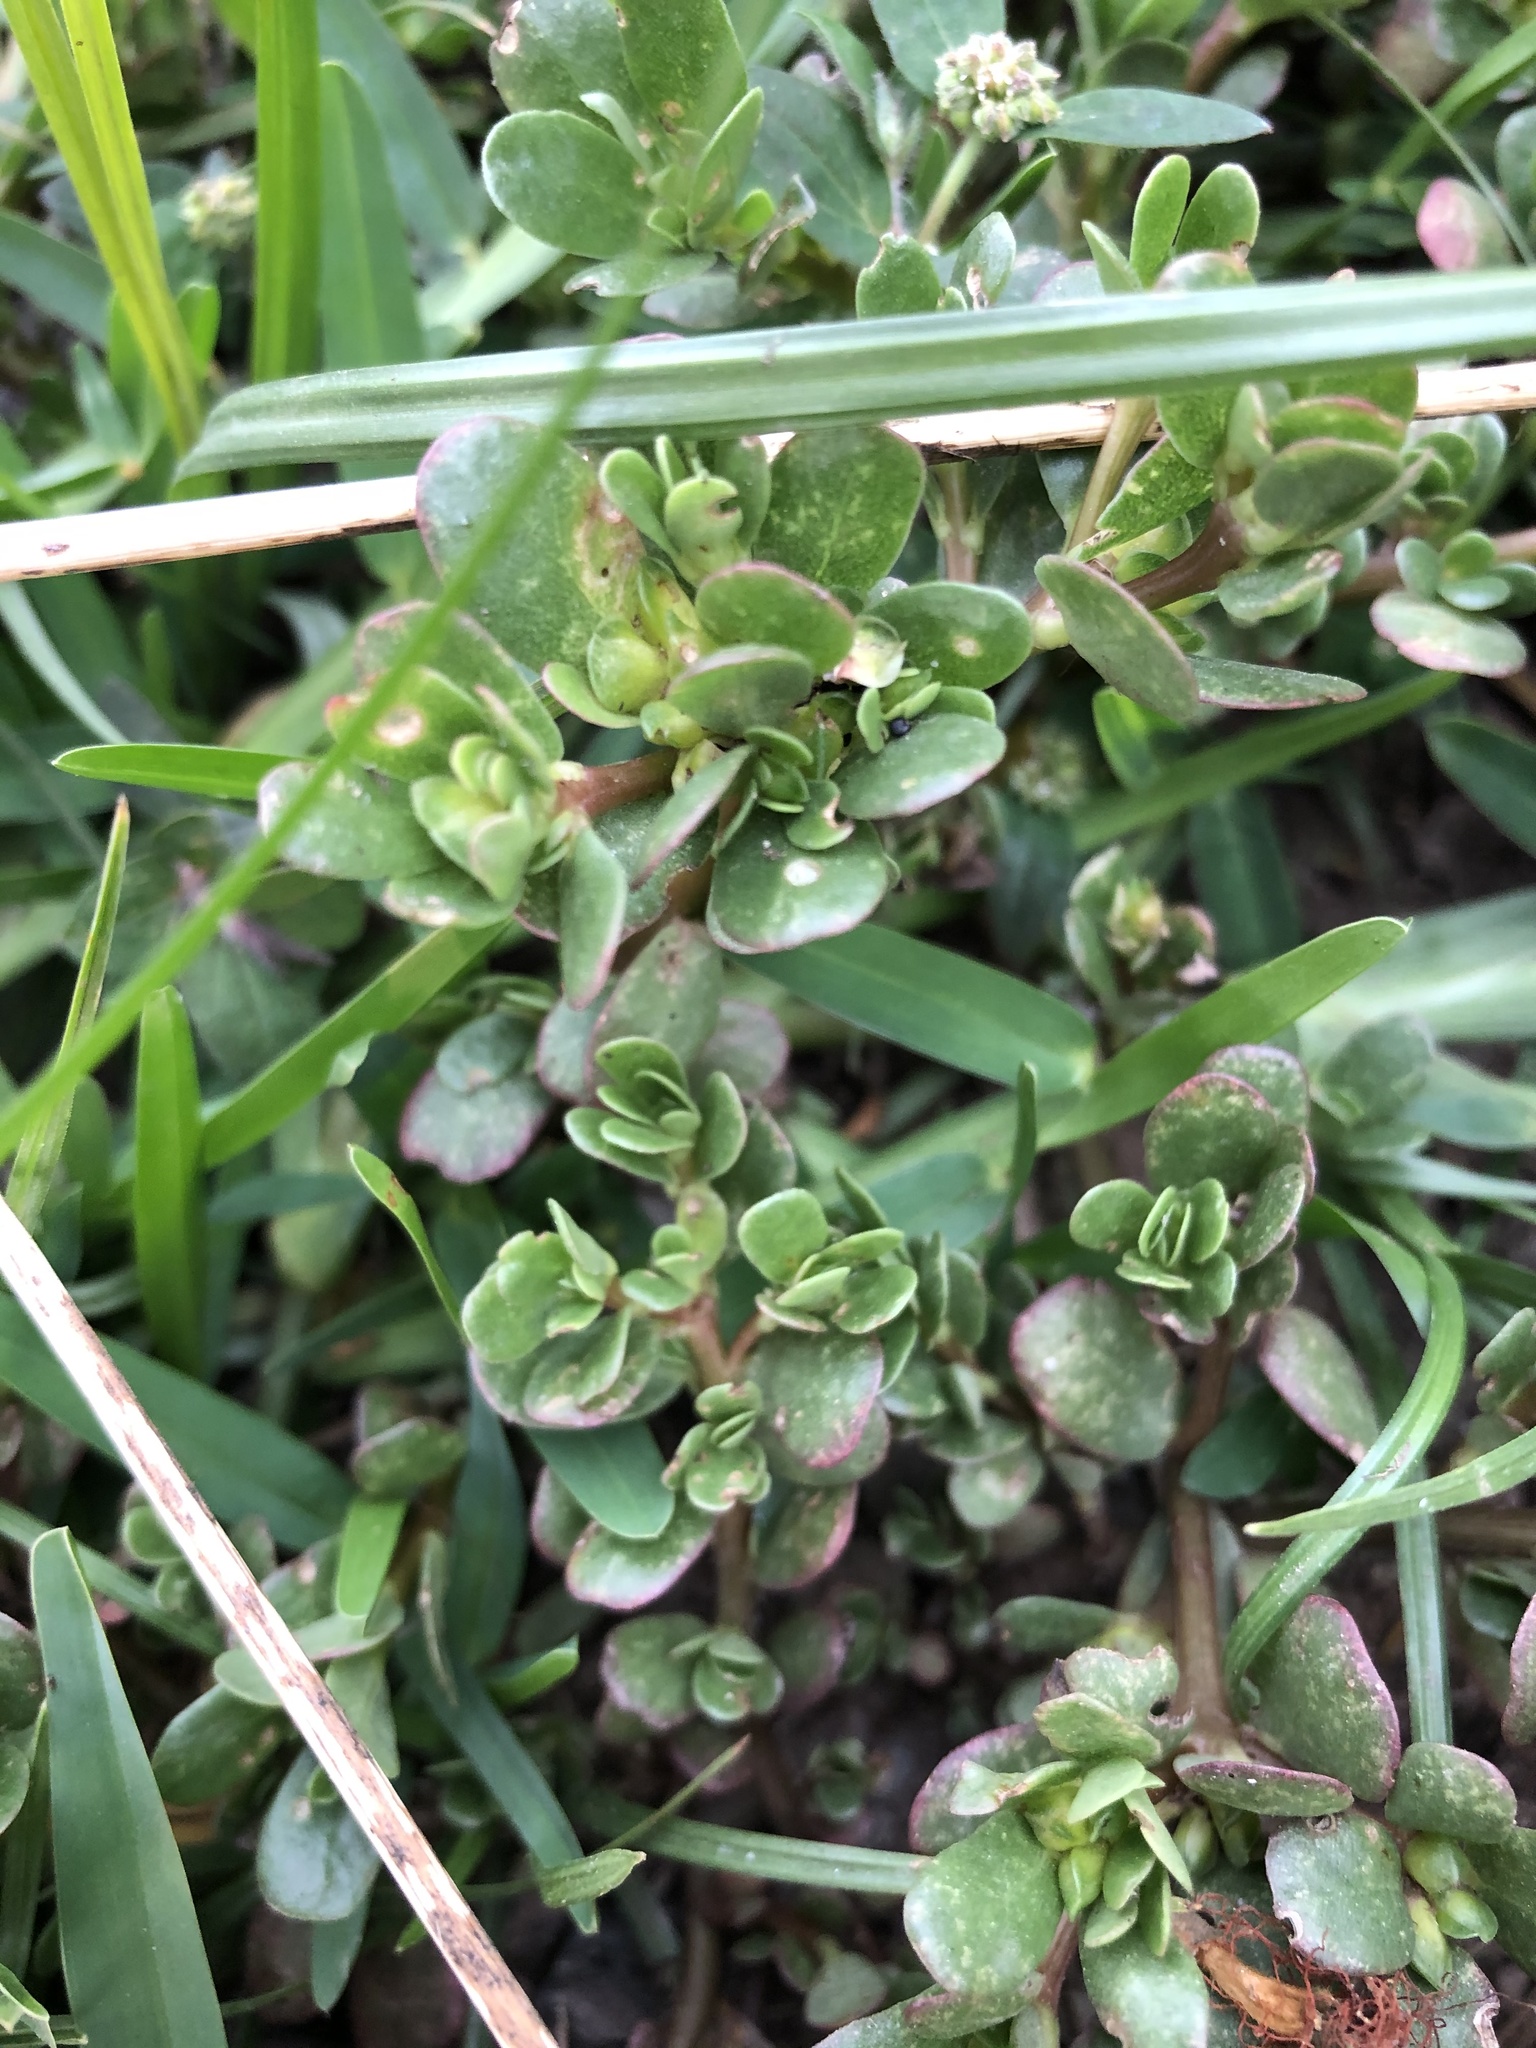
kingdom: Plantae
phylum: Tracheophyta
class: Magnoliopsida
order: Caryophyllales
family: Portulacaceae
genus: Portulaca
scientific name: Portulaca oleracea
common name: Common purslane
